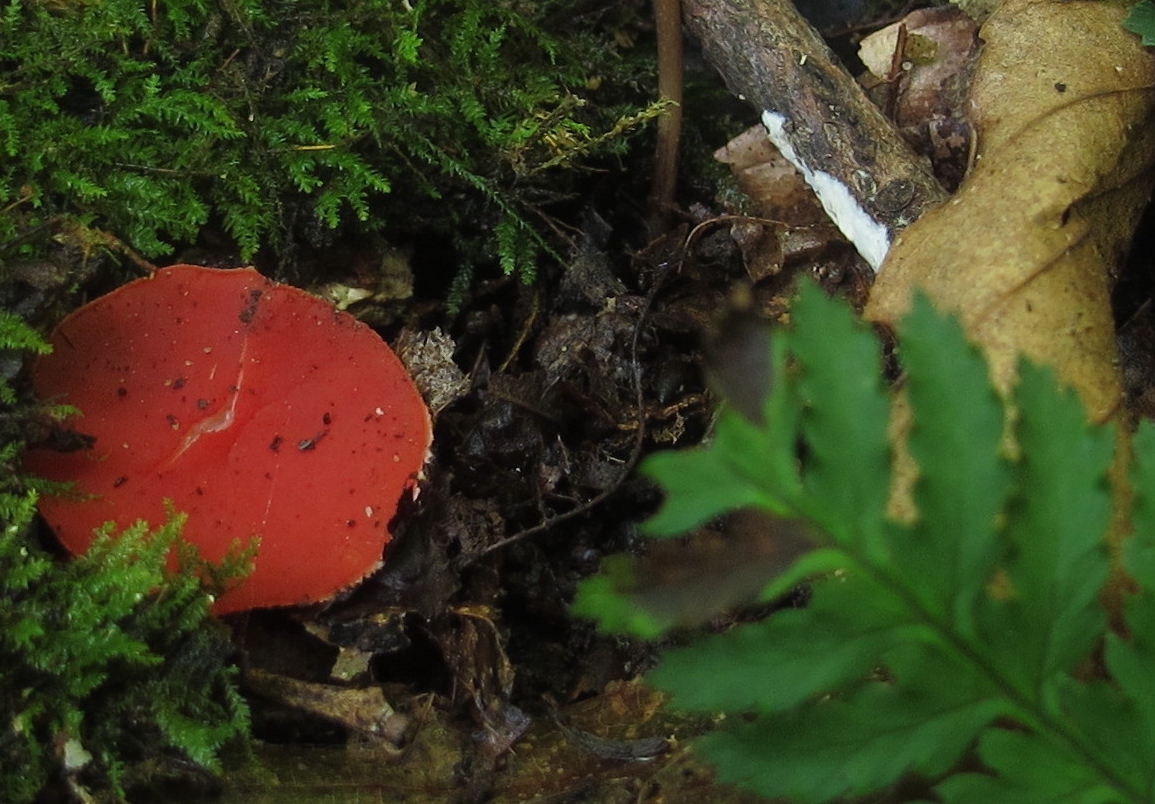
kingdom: Fungi
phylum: Ascomycota
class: Pezizomycetes
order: Pezizales
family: Sarcoscyphaceae
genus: Sarcoscypha
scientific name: Sarcoscypha occidentalis
